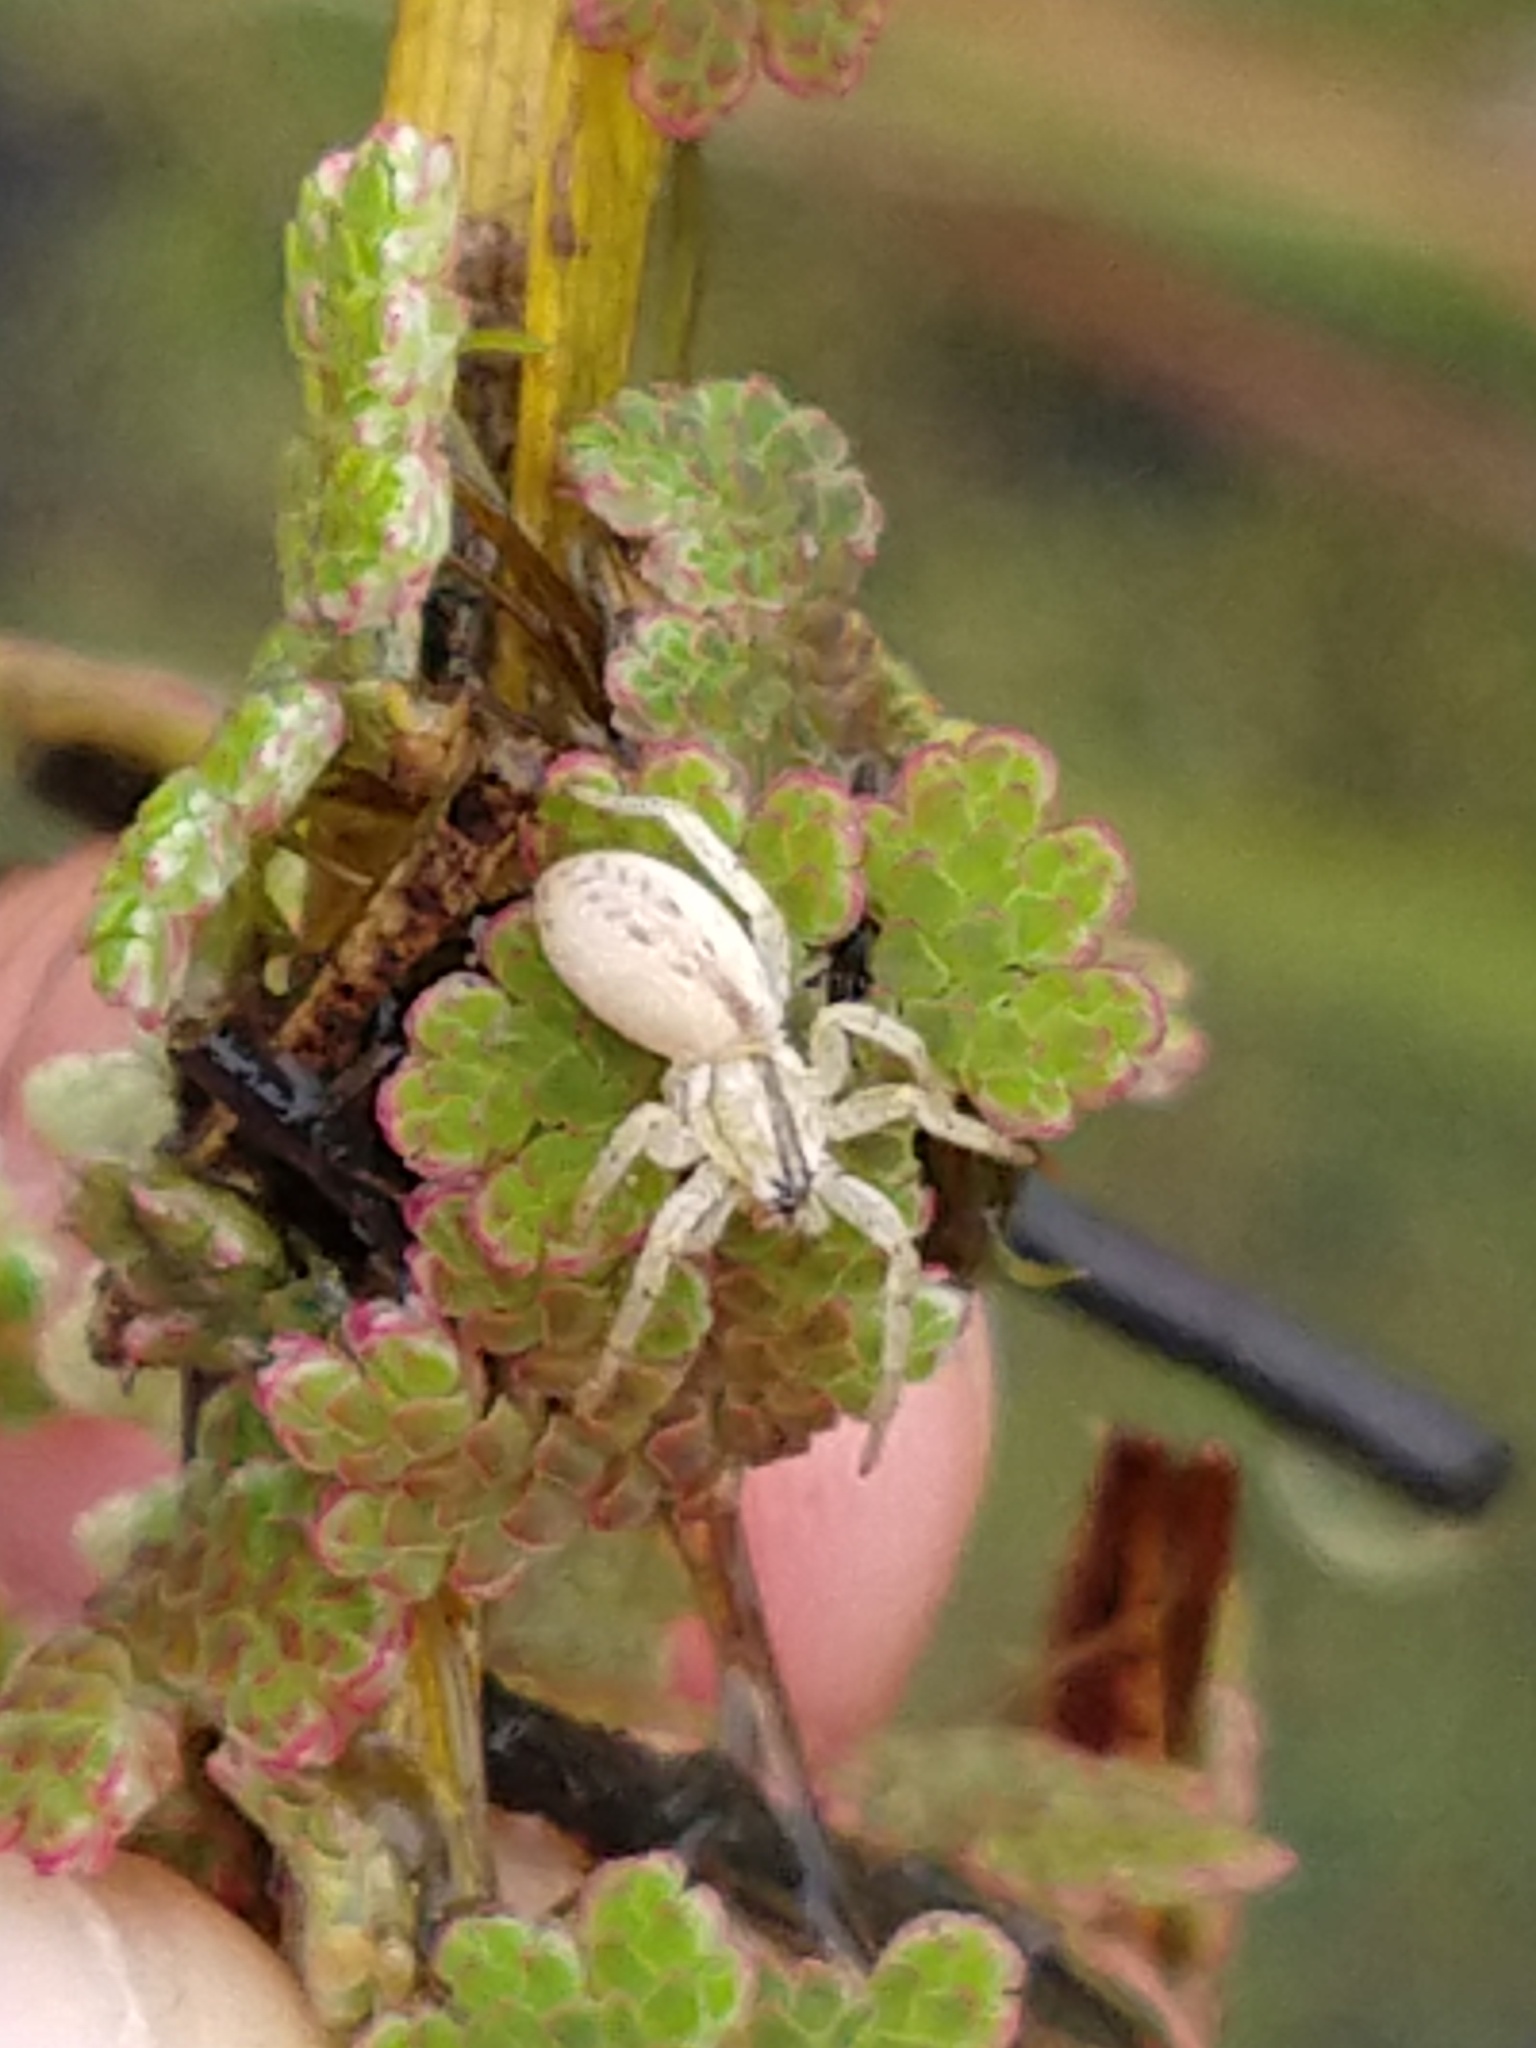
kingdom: Animalia
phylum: Arthropoda
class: Arachnida
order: Araneae
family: Anyphaenidae
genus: Arachosia
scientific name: Arachosia praesignis
